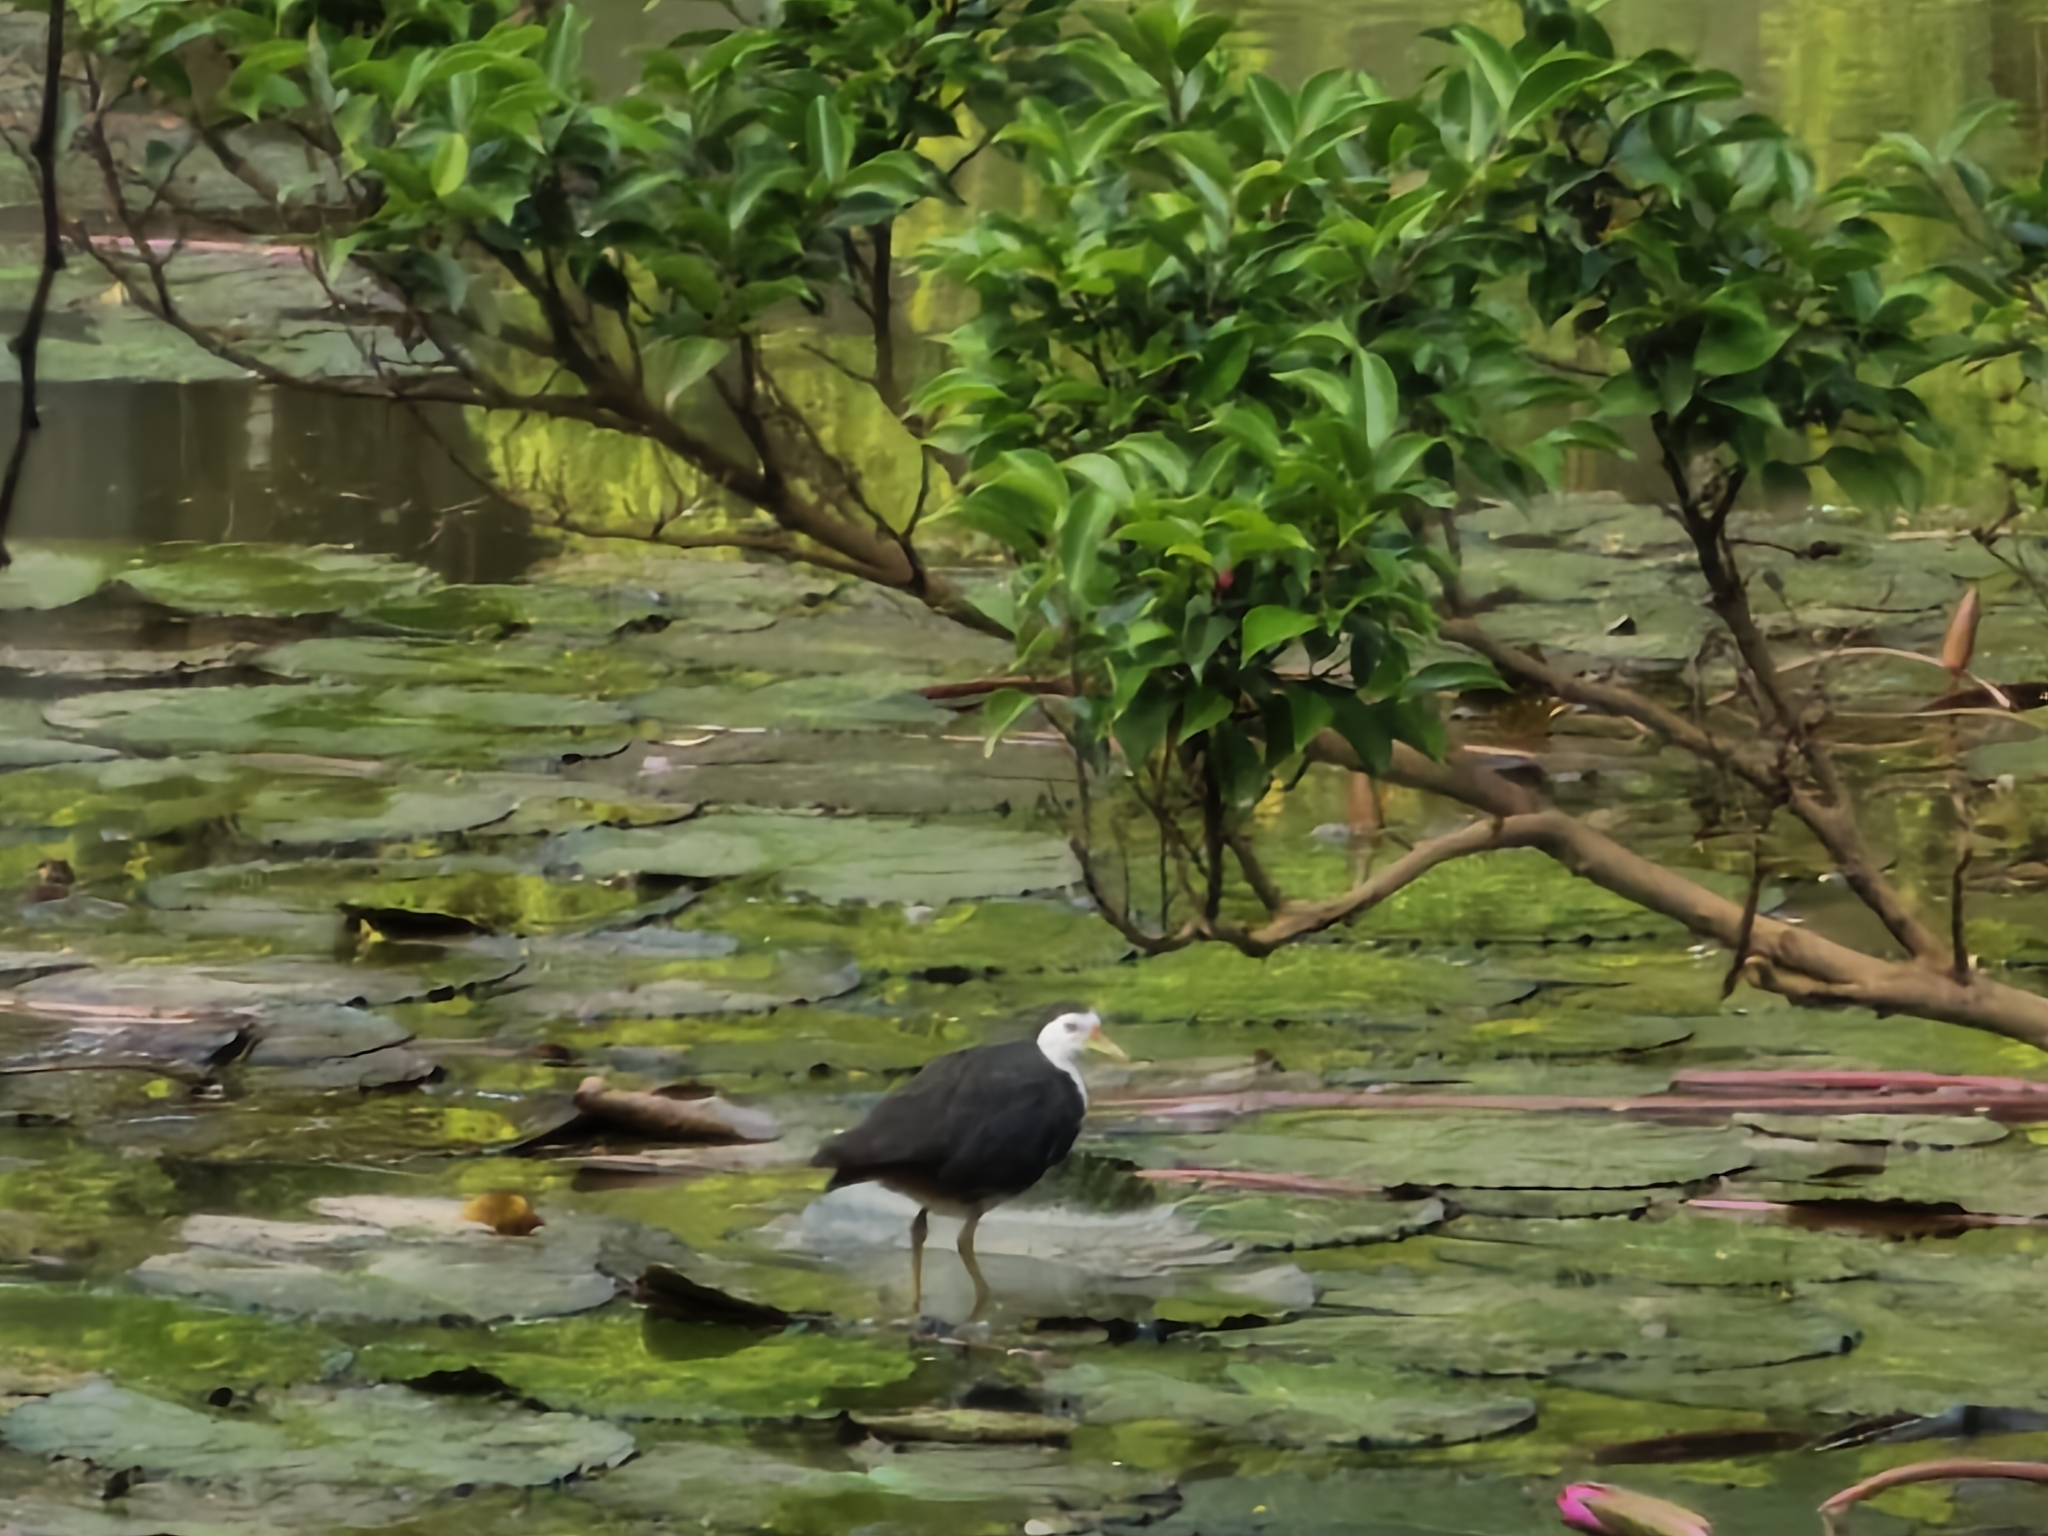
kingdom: Animalia
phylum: Chordata
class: Aves
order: Gruiformes
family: Rallidae
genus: Amaurornis
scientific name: Amaurornis phoenicurus
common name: White-breasted waterhen
